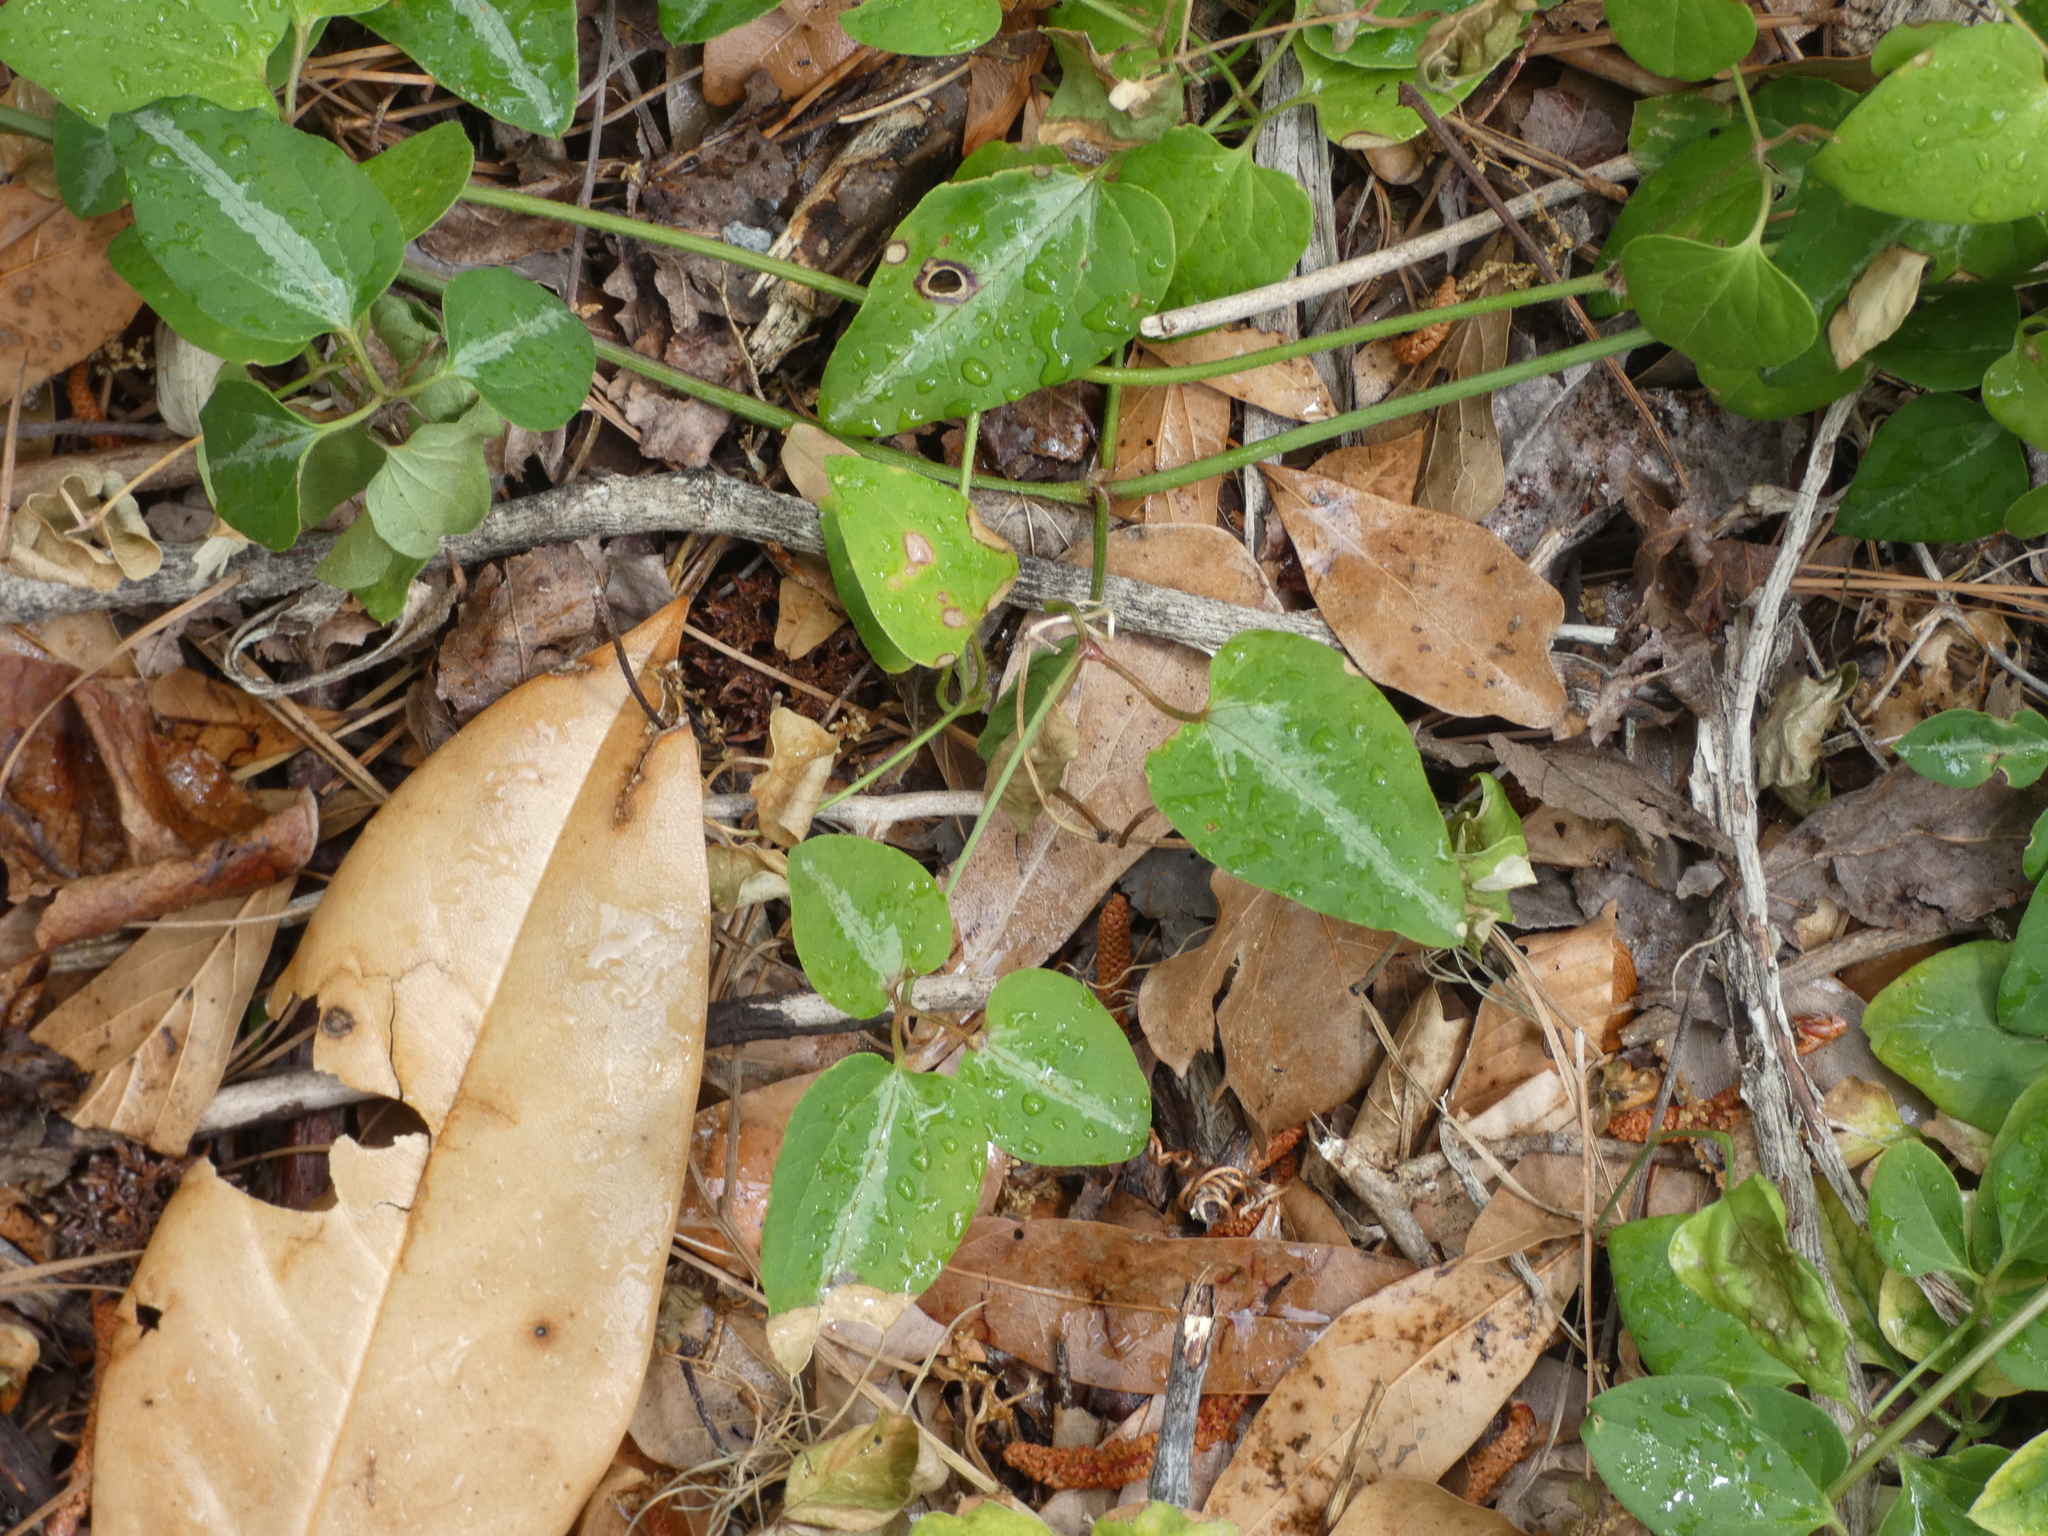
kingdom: Plantae
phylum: Tracheophyta
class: Magnoliopsida
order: Ranunculales
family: Ranunculaceae
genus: Clematis
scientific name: Clematis terniflora
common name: Sweet autumn clematis
